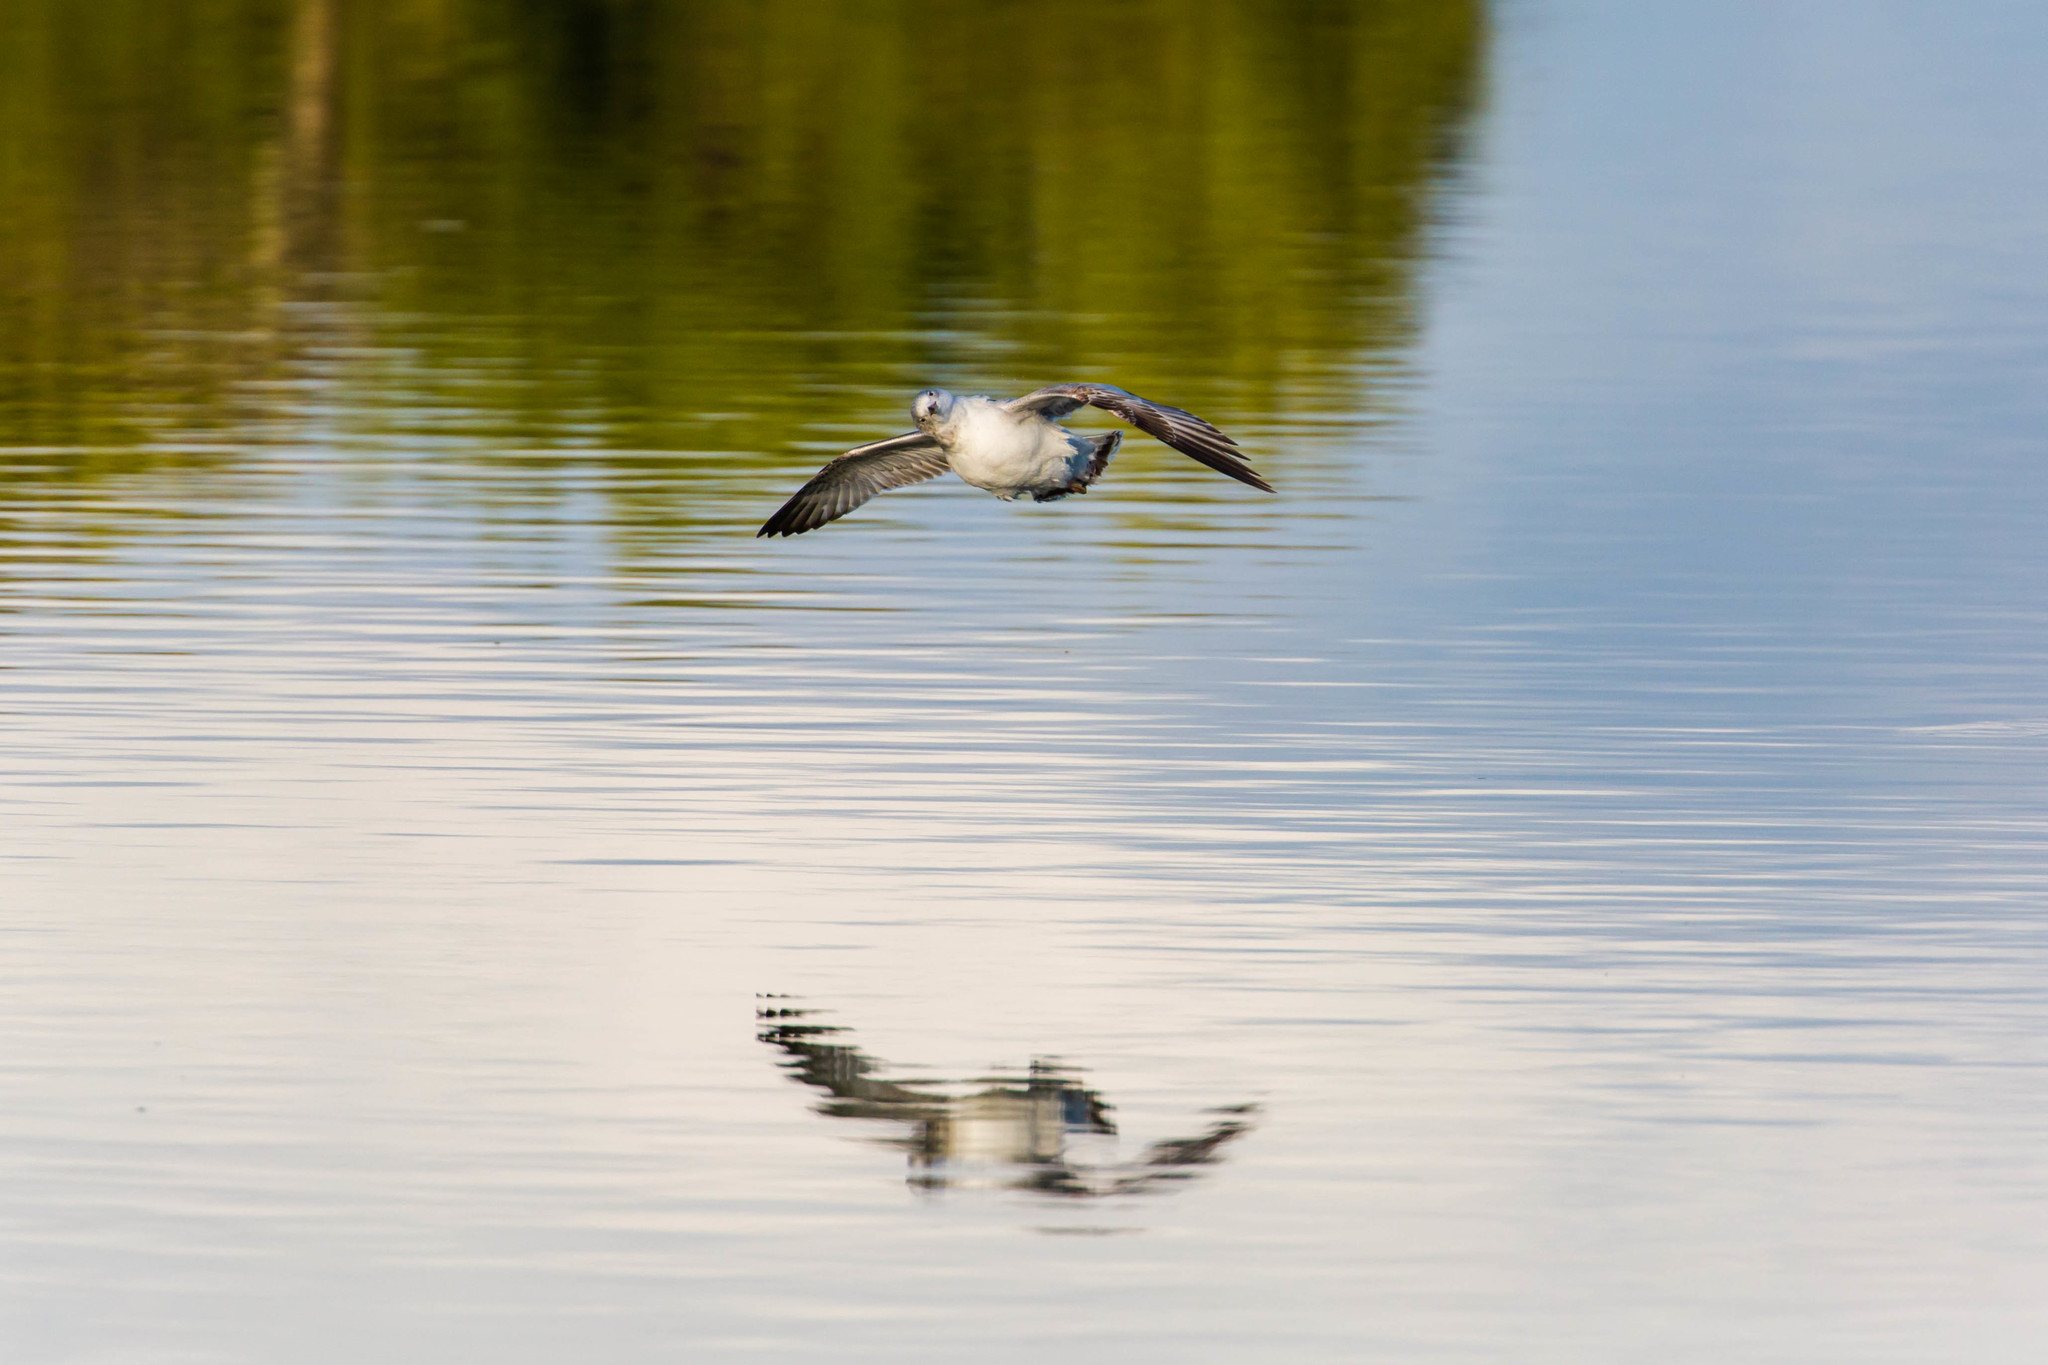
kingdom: Animalia
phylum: Chordata
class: Aves
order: Charadriiformes
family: Laridae
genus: Larus
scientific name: Larus delawarensis
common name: Ring-billed gull
